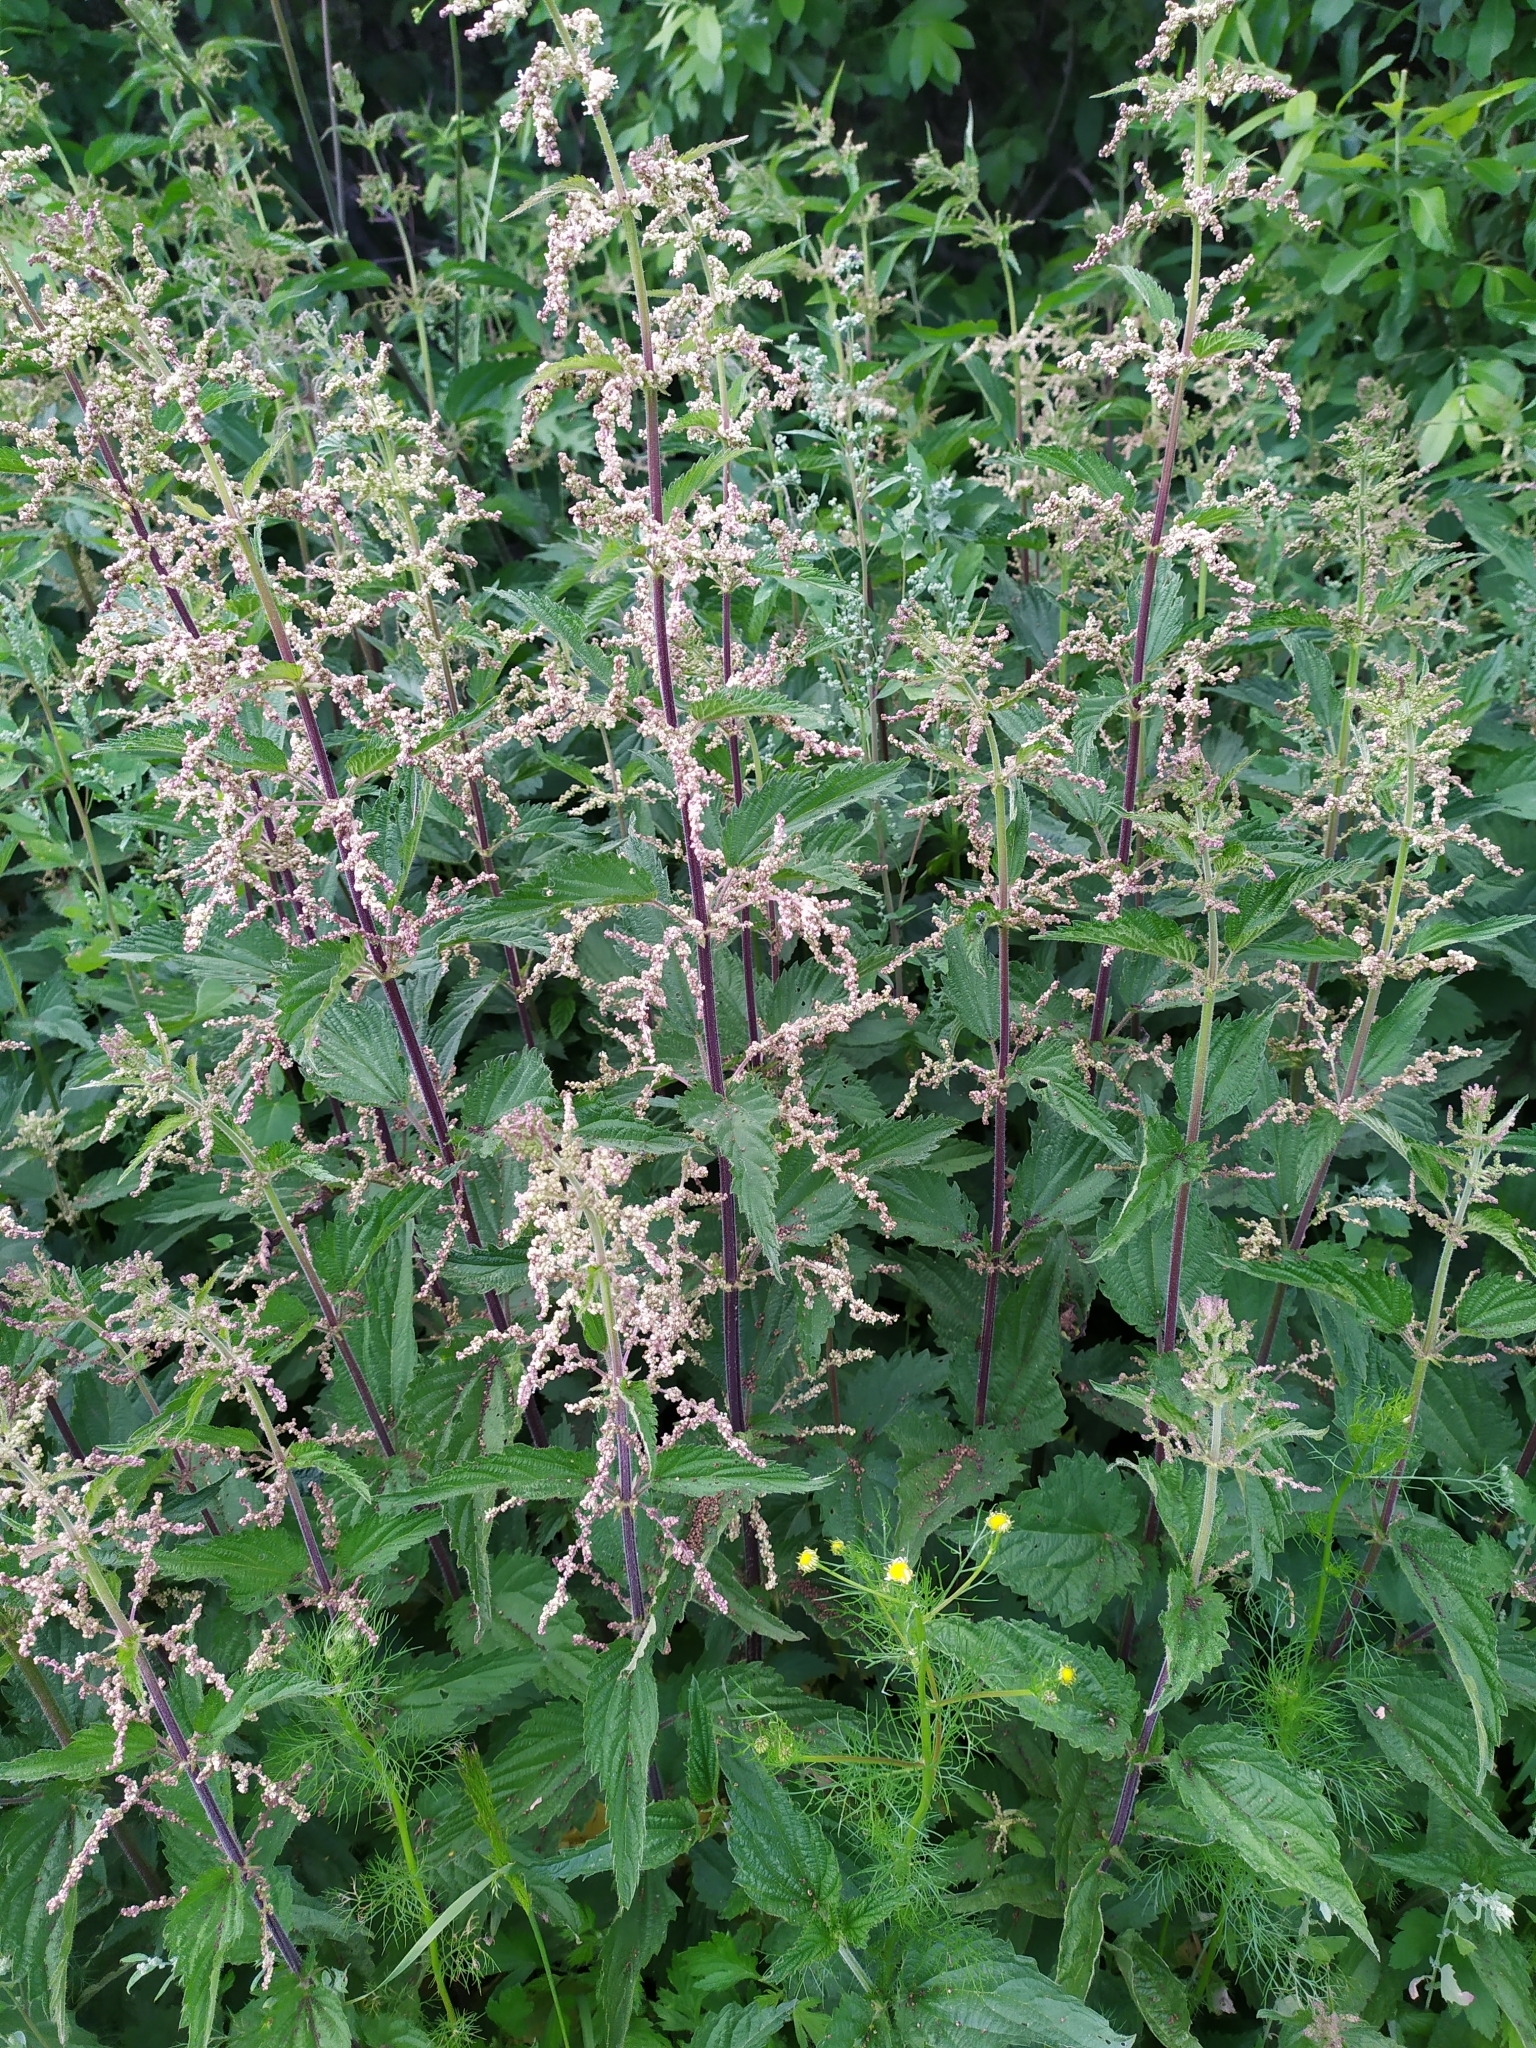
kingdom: Plantae
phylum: Tracheophyta
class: Magnoliopsida
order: Rosales
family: Urticaceae
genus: Urtica
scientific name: Urtica dioica
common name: Common nettle
